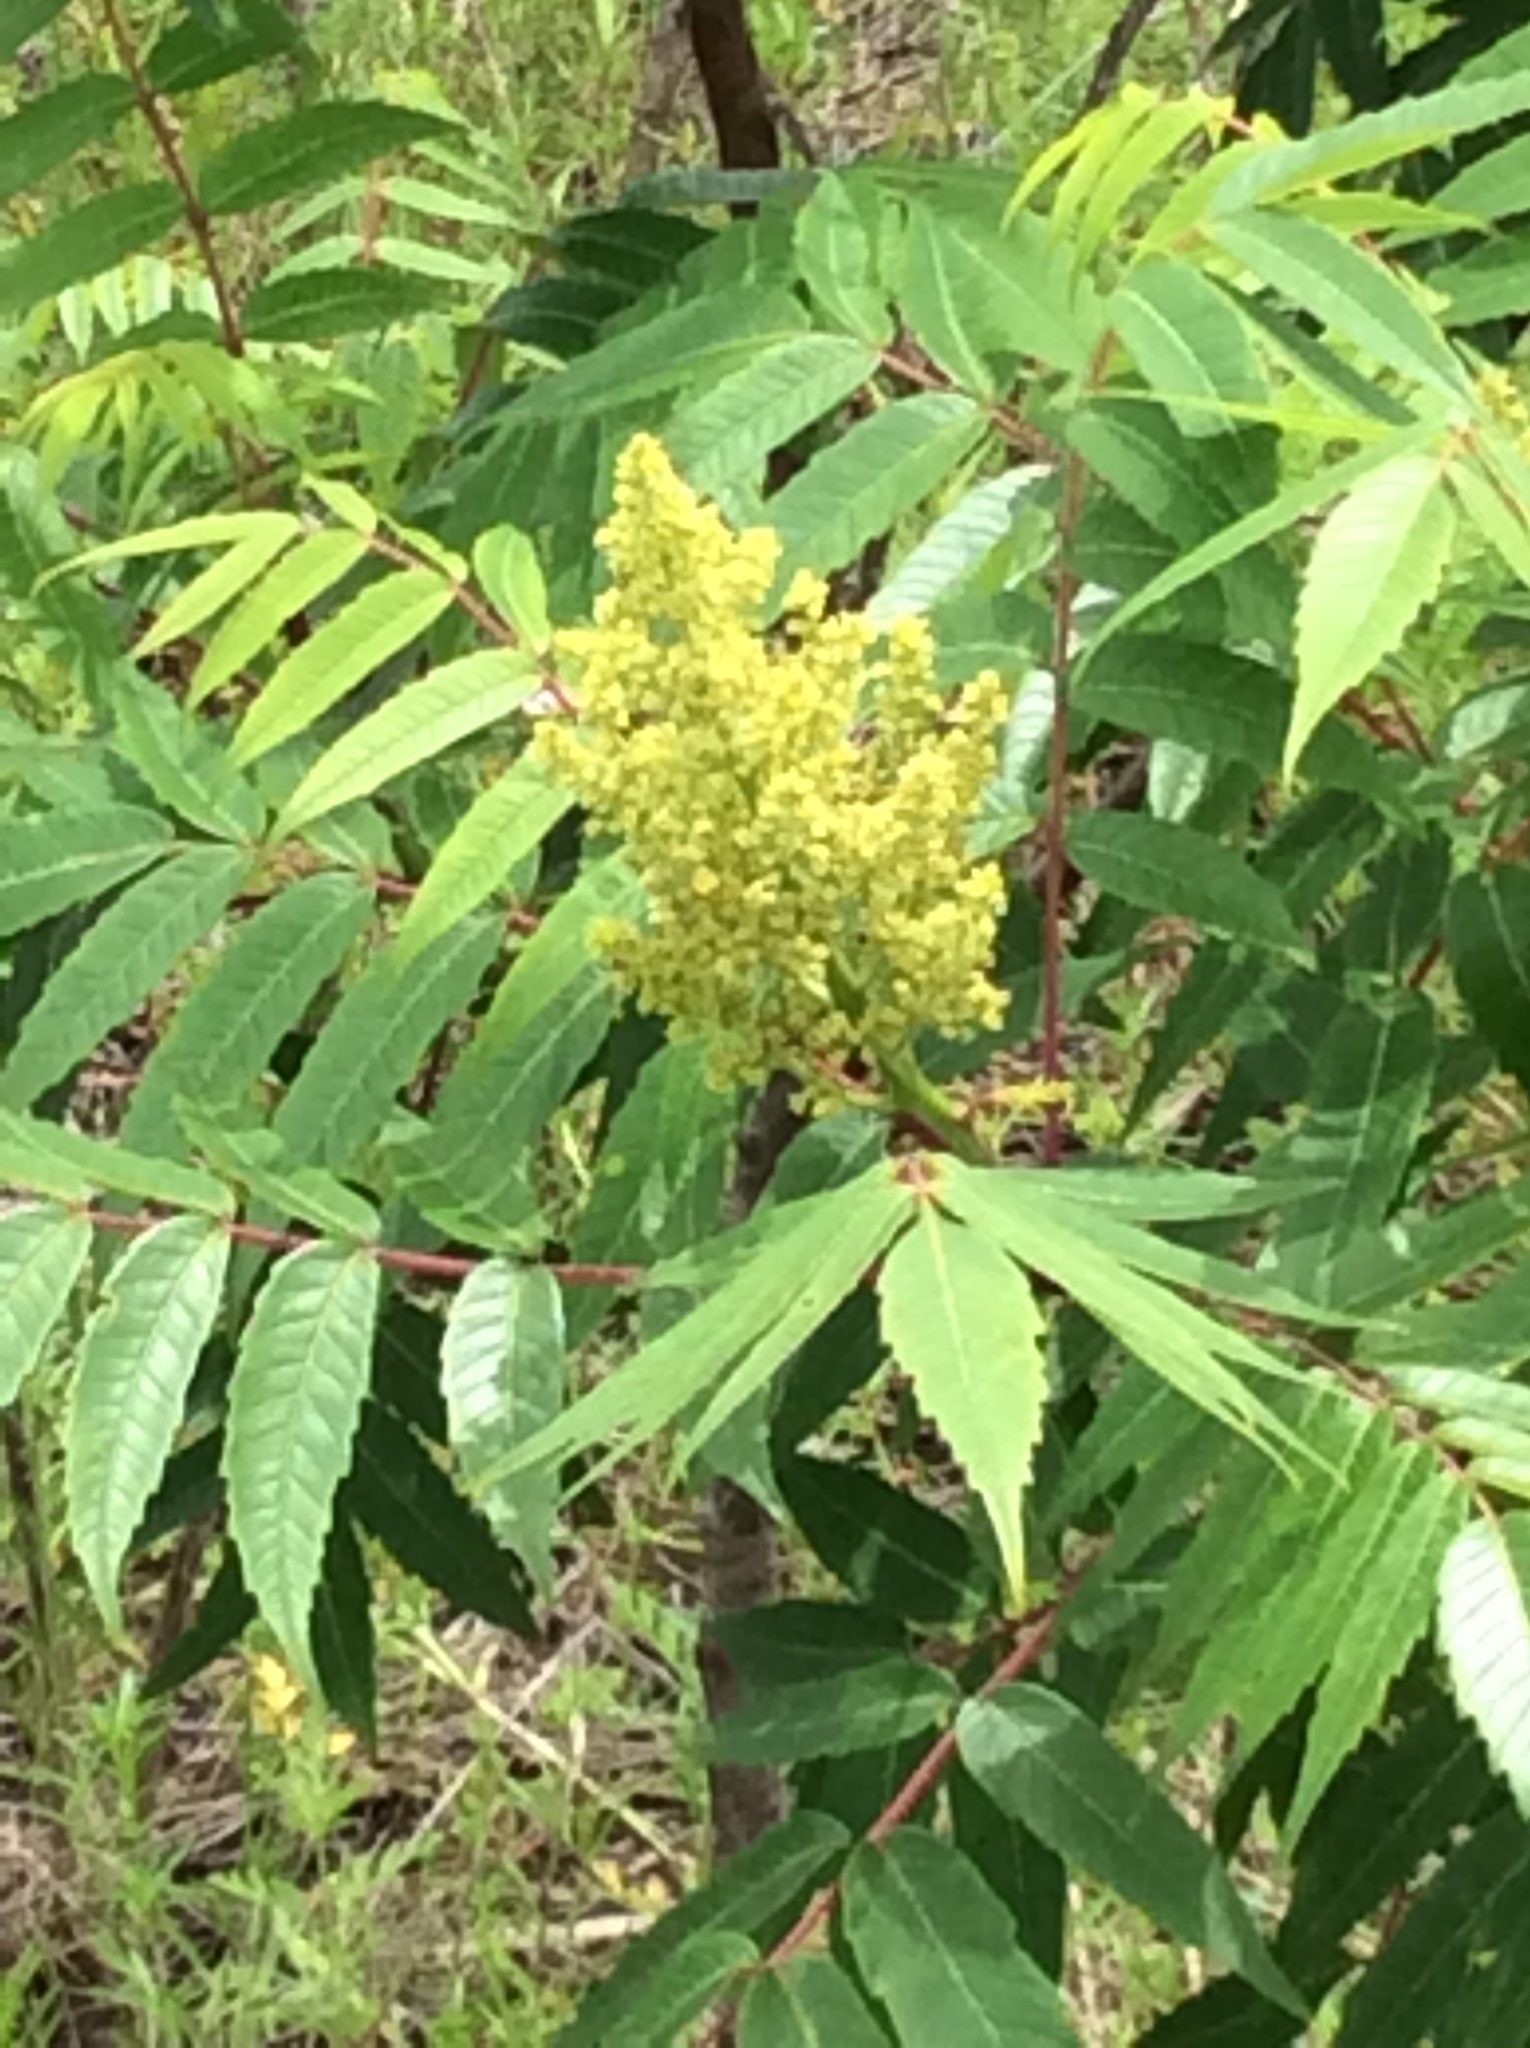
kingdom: Plantae
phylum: Tracheophyta
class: Magnoliopsida
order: Sapindales
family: Anacardiaceae
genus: Rhus
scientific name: Rhus glabra
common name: Scarlet sumac
